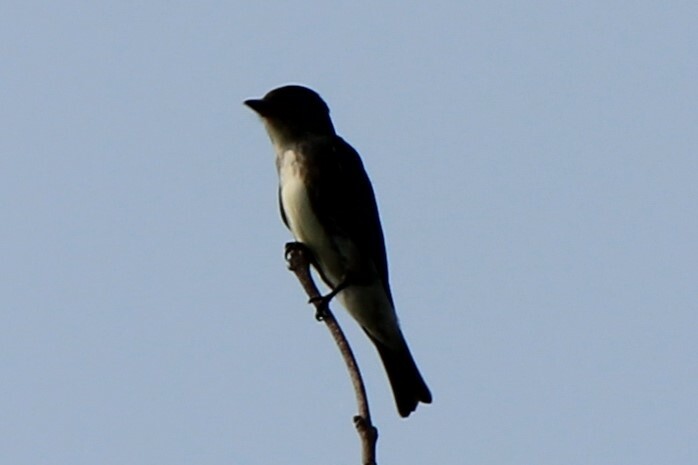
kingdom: Animalia
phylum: Chordata
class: Aves
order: Passeriformes
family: Tyrannidae
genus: Contopus
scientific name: Contopus virens
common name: Eastern wood-pewee
